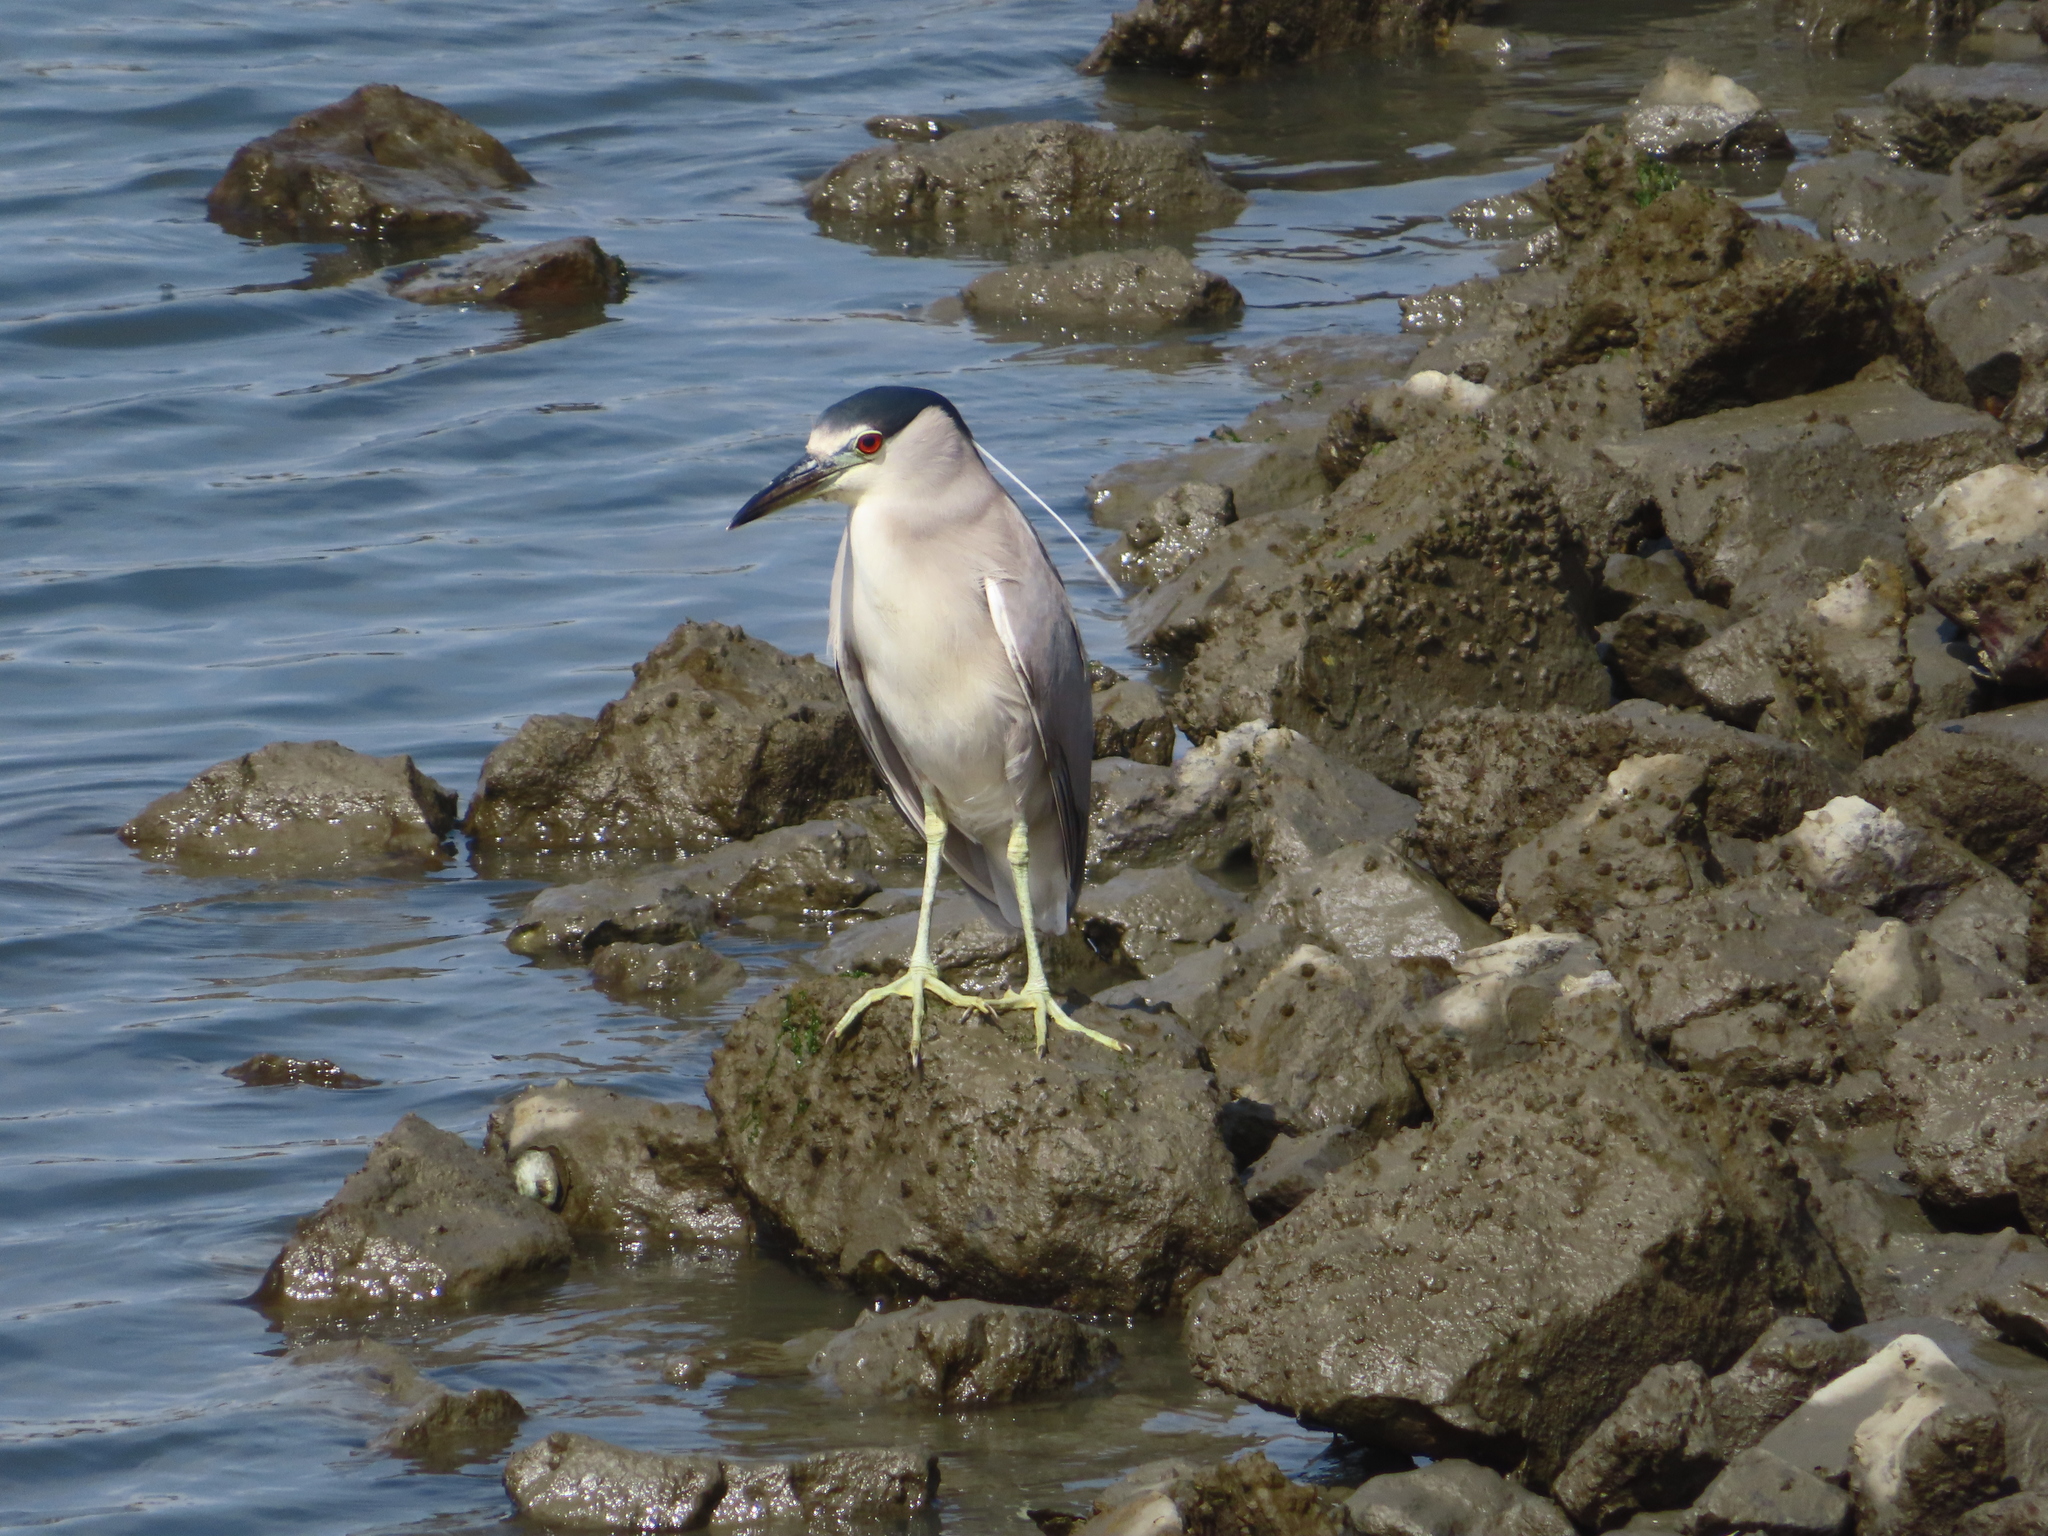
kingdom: Animalia
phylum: Chordata
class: Aves
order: Pelecaniformes
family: Ardeidae
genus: Nycticorax
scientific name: Nycticorax nycticorax
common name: Black-crowned night heron
